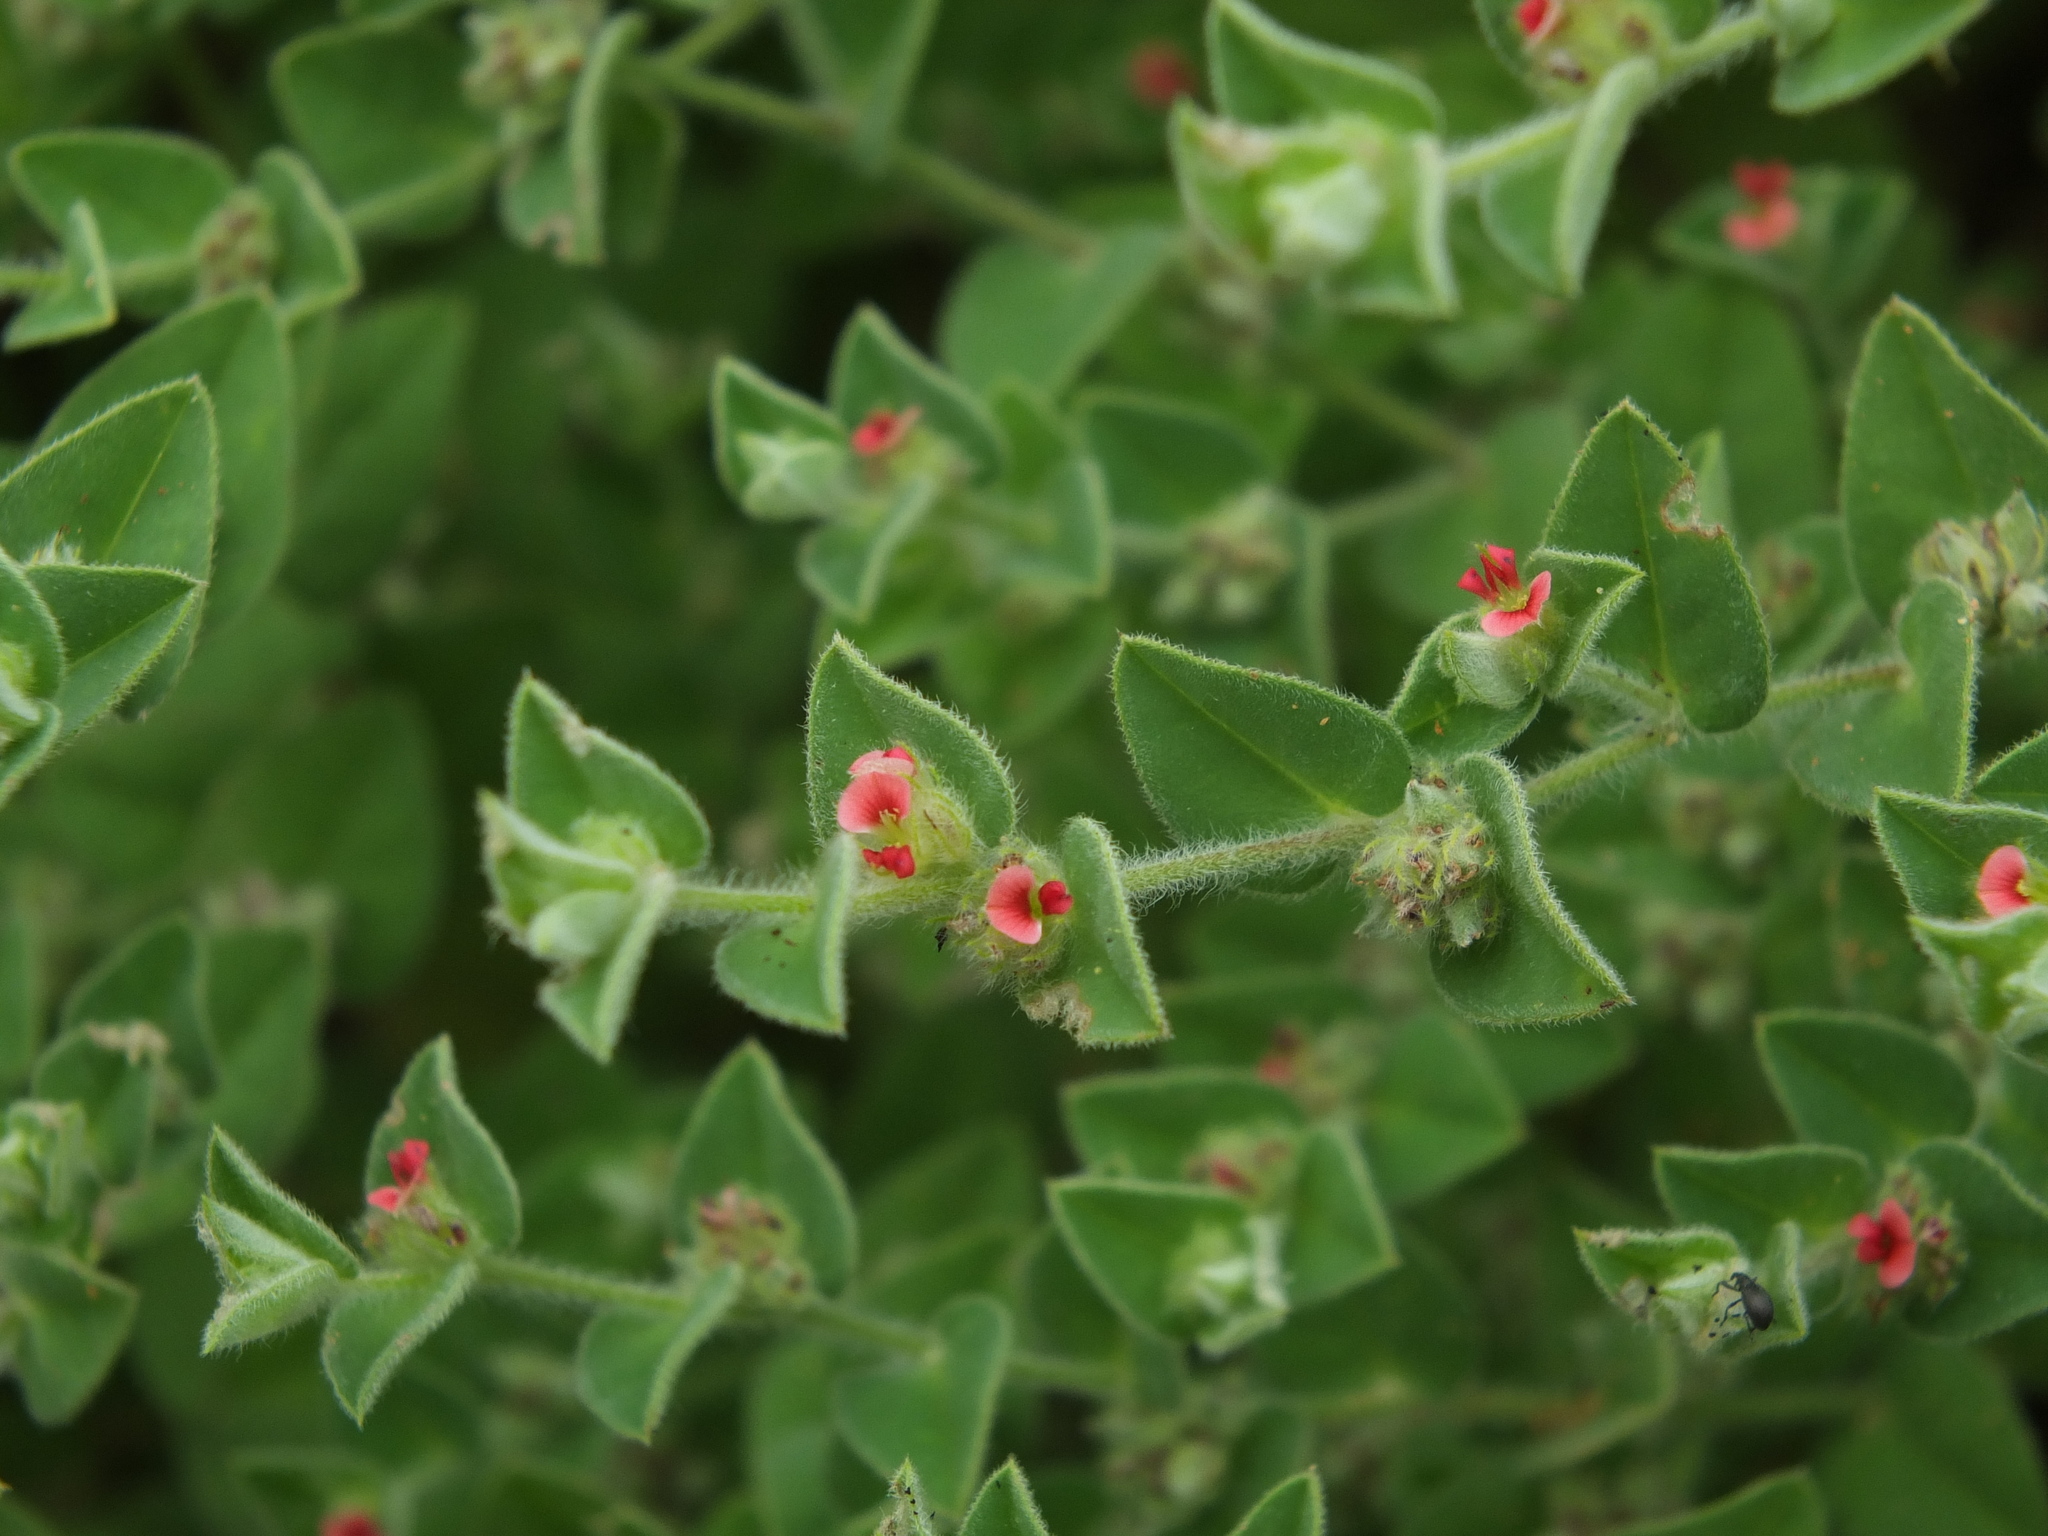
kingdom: Plantae
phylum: Tracheophyta
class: Magnoliopsida
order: Fabales
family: Fabaceae
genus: Indigofera
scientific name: Indigofera cordifolia
